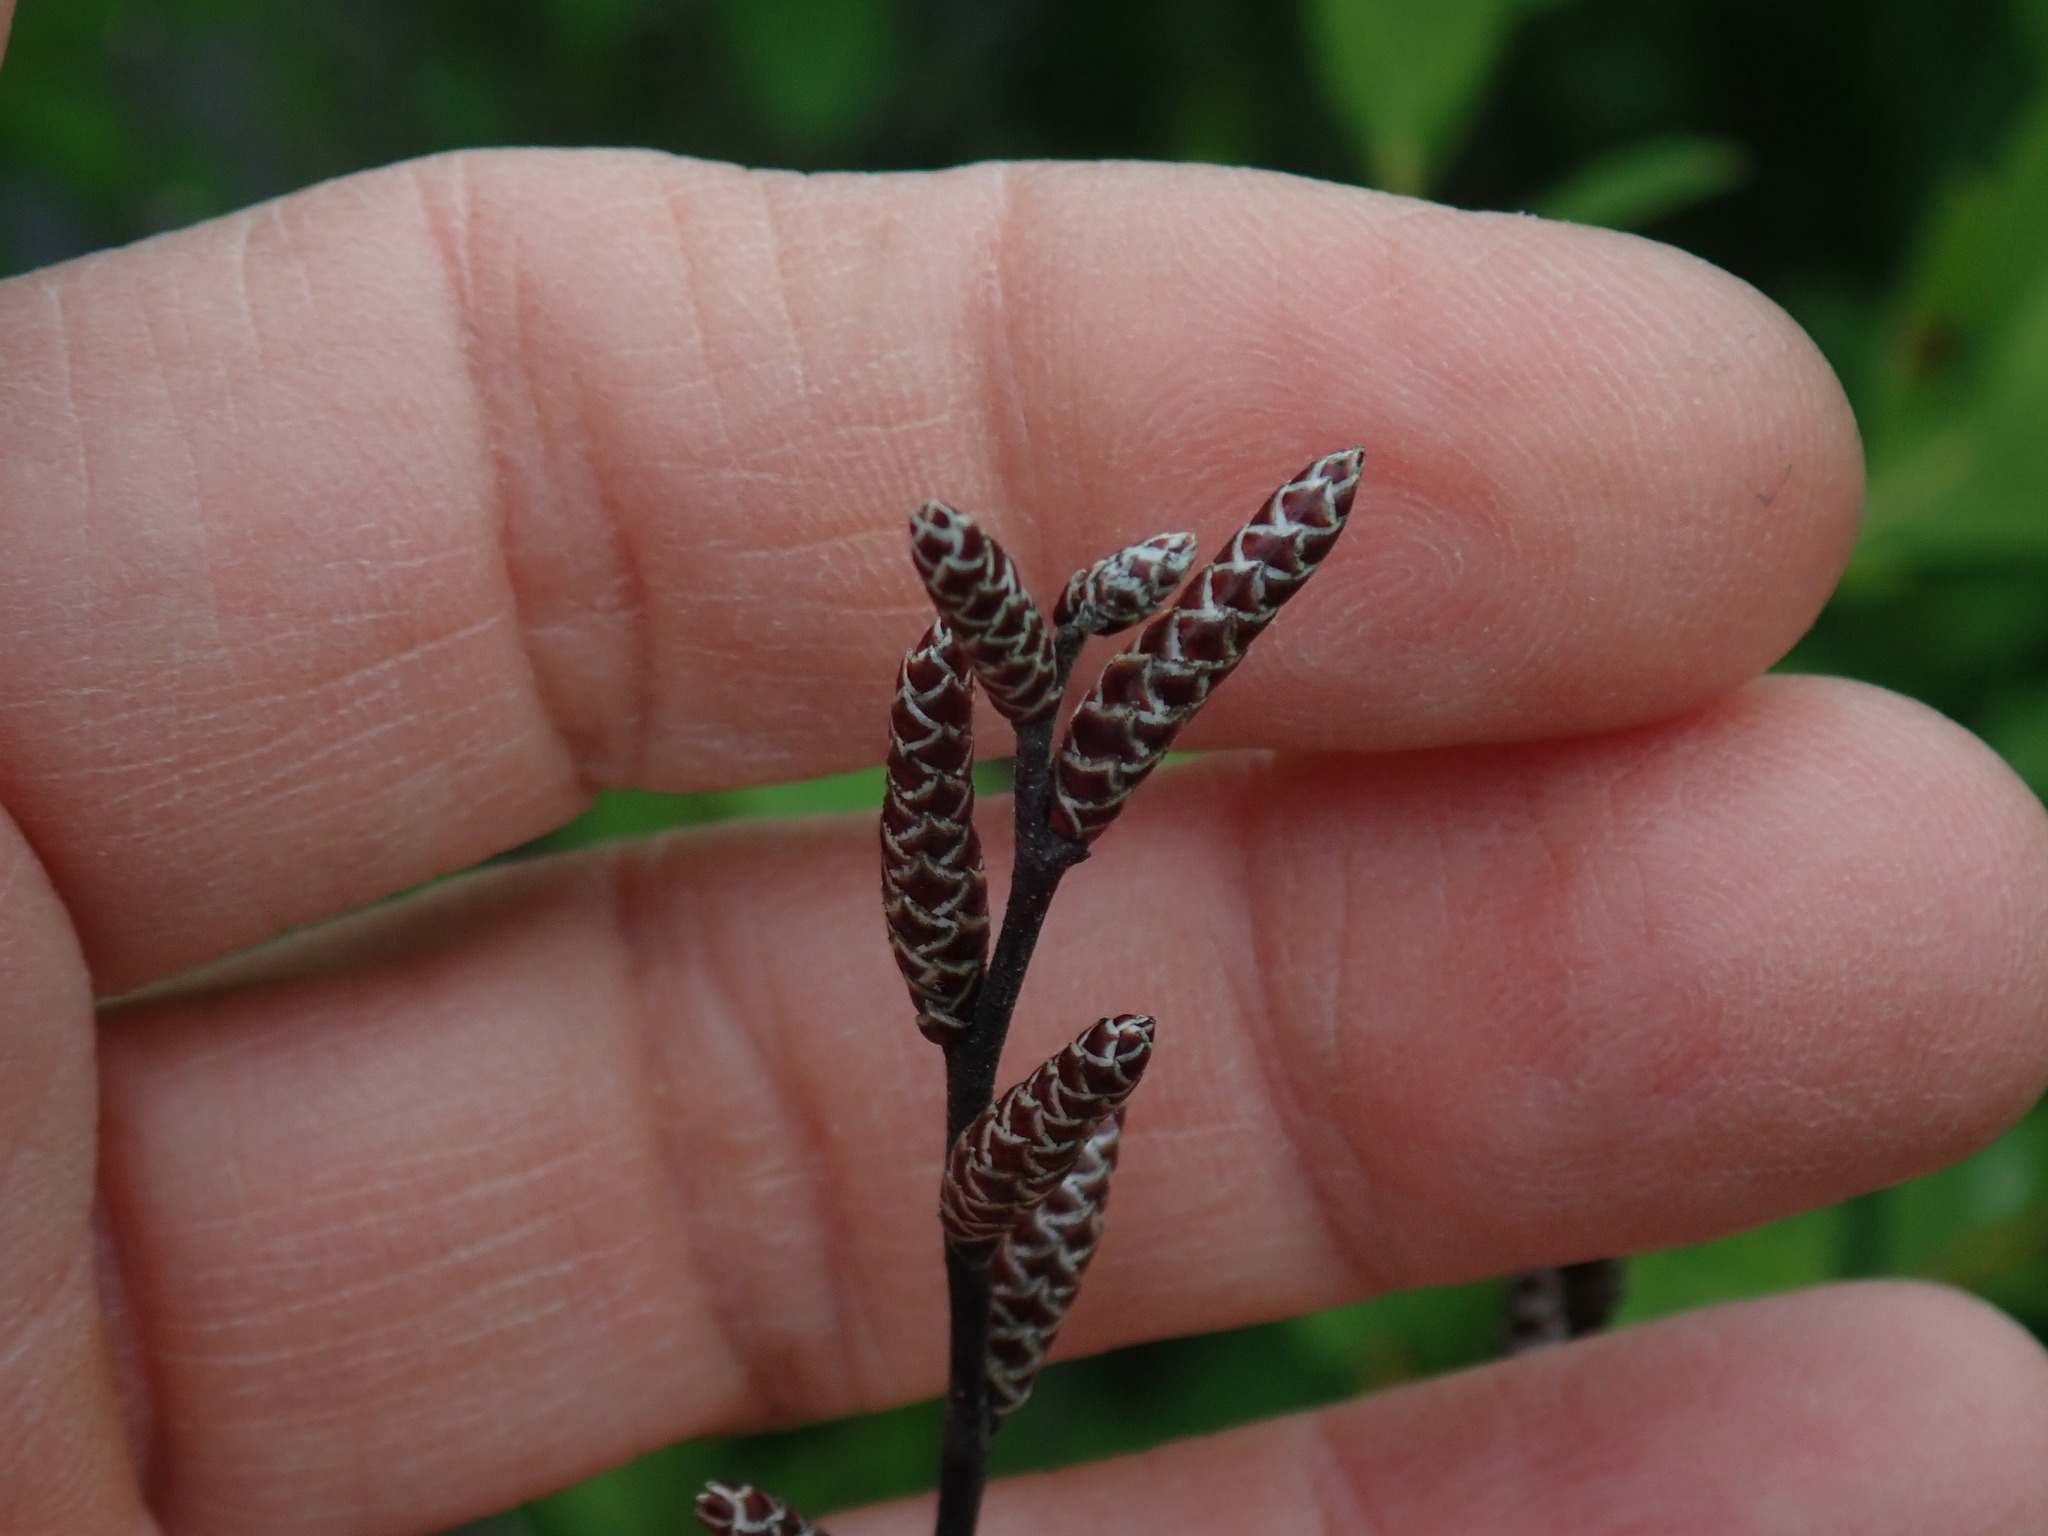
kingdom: Plantae
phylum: Tracheophyta
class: Magnoliopsida
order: Fagales
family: Myricaceae
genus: Myrica
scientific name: Myrica gale
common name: Sweet gale
